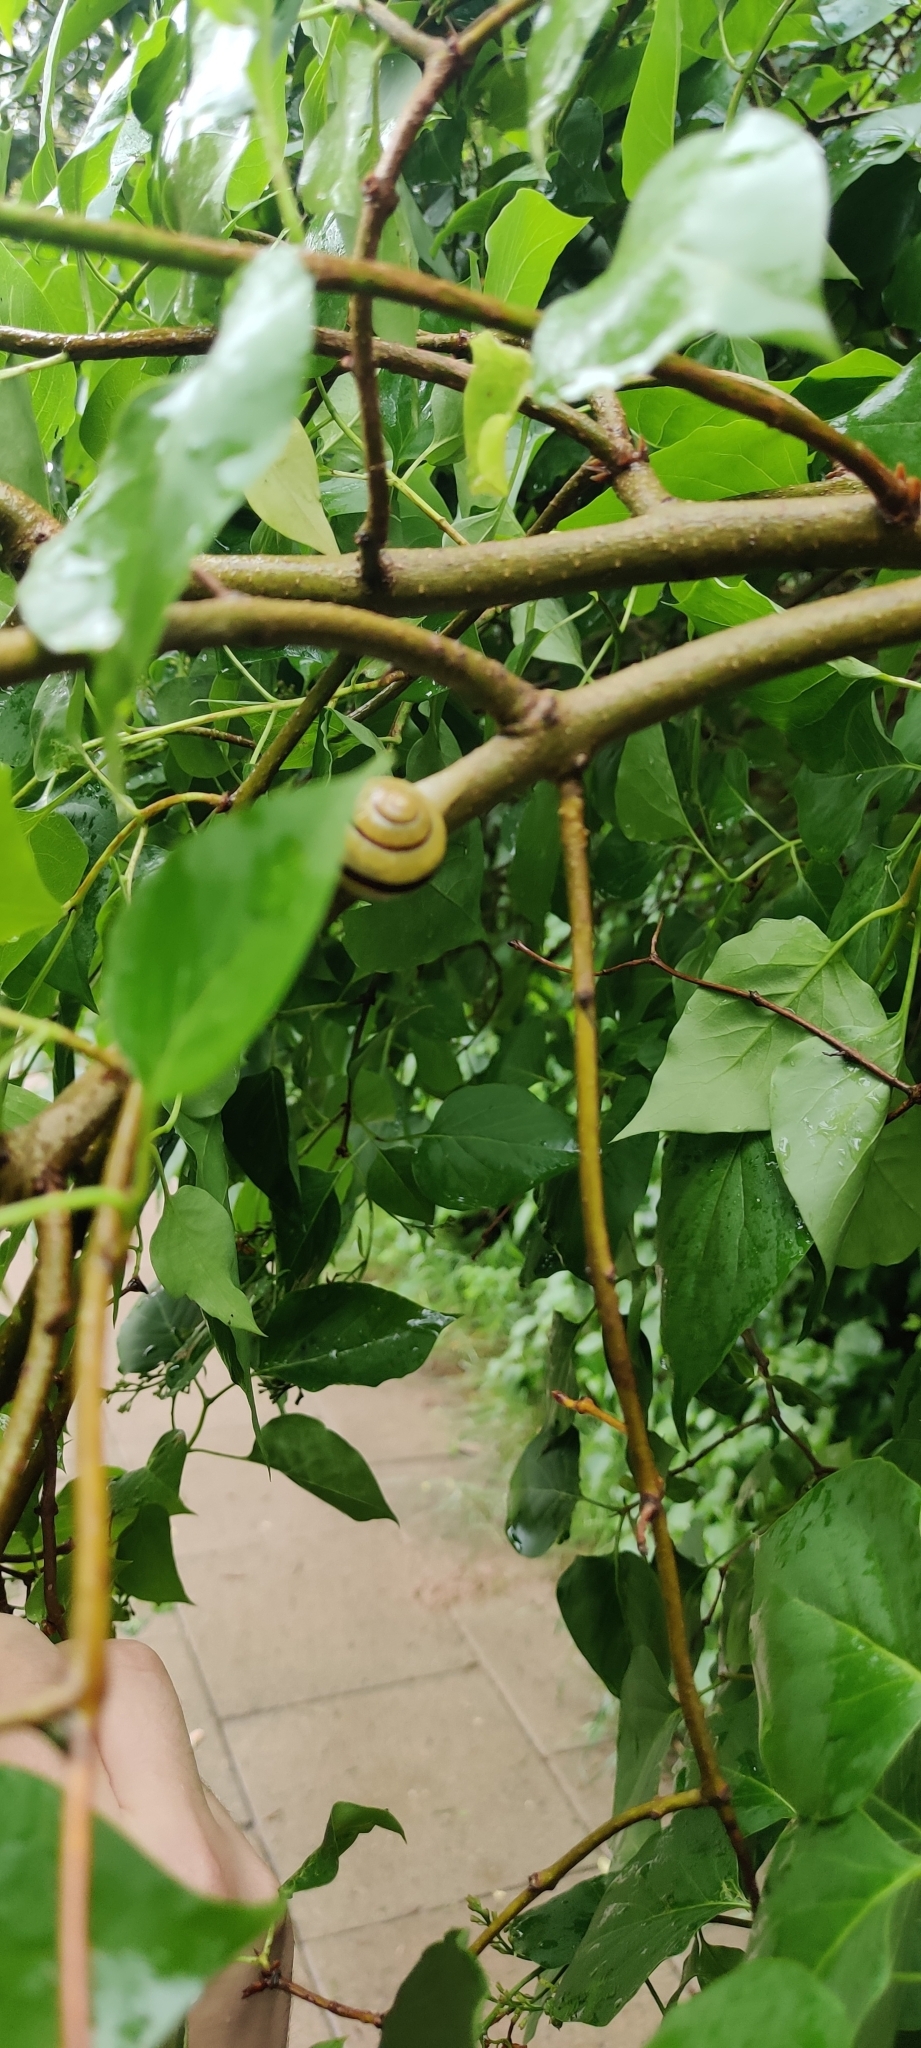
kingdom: Animalia
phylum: Mollusca
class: Gastropoda
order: Stylommatophora
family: Helicidae
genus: Cepaea
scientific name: Cepaea nemoralis
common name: Grovesnail
